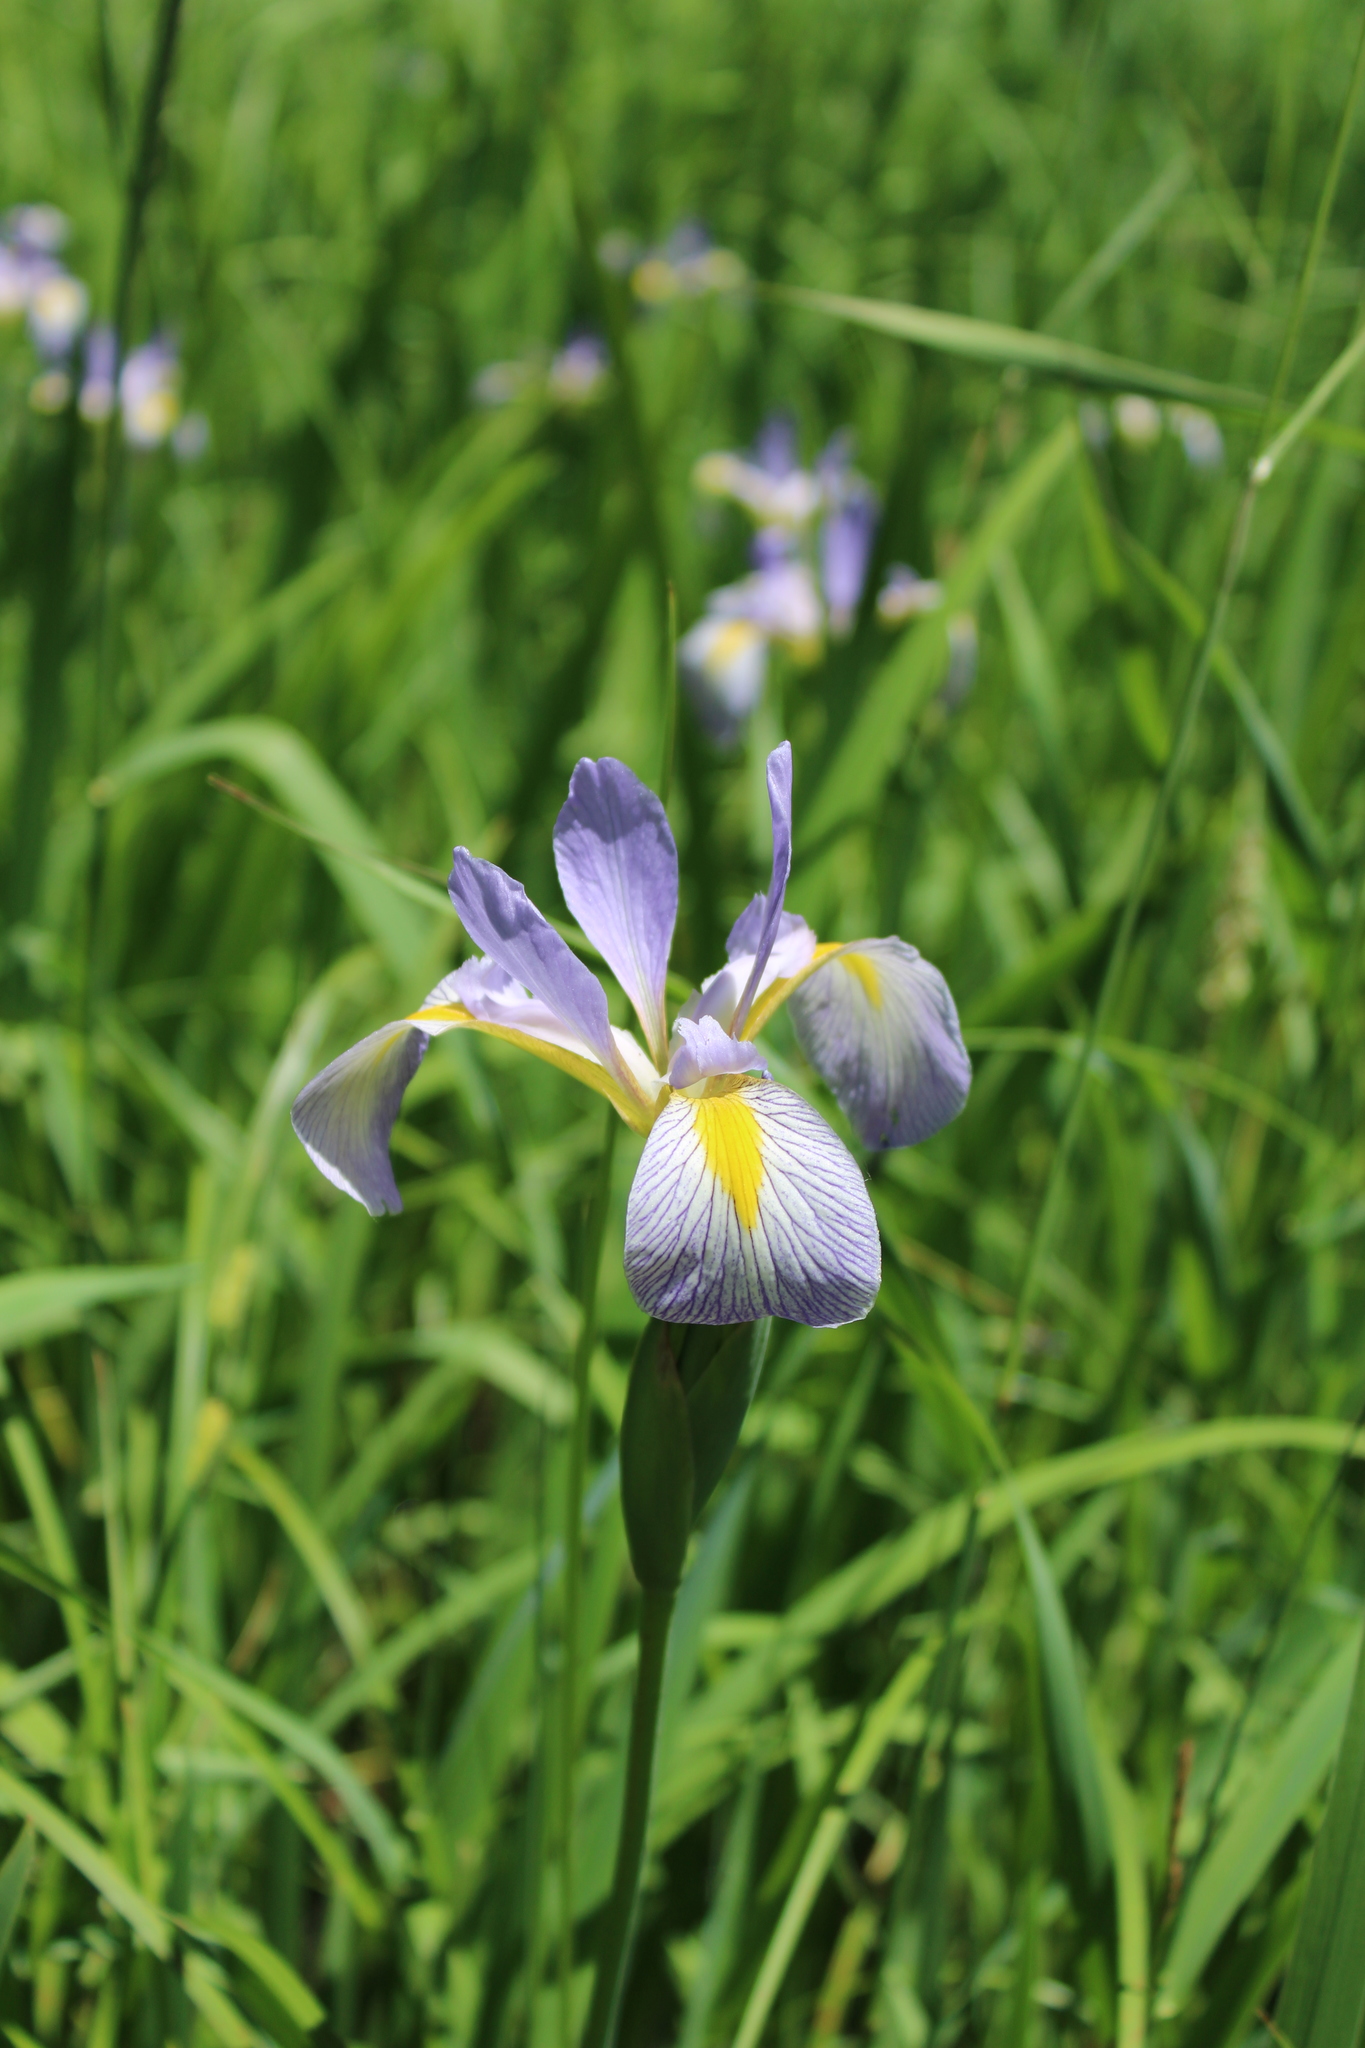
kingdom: Plantae
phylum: Tracheophyta
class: Liliopsida
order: Asparagales
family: Iridaceae
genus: Iris
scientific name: Iris virginica
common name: Southern blue flag
